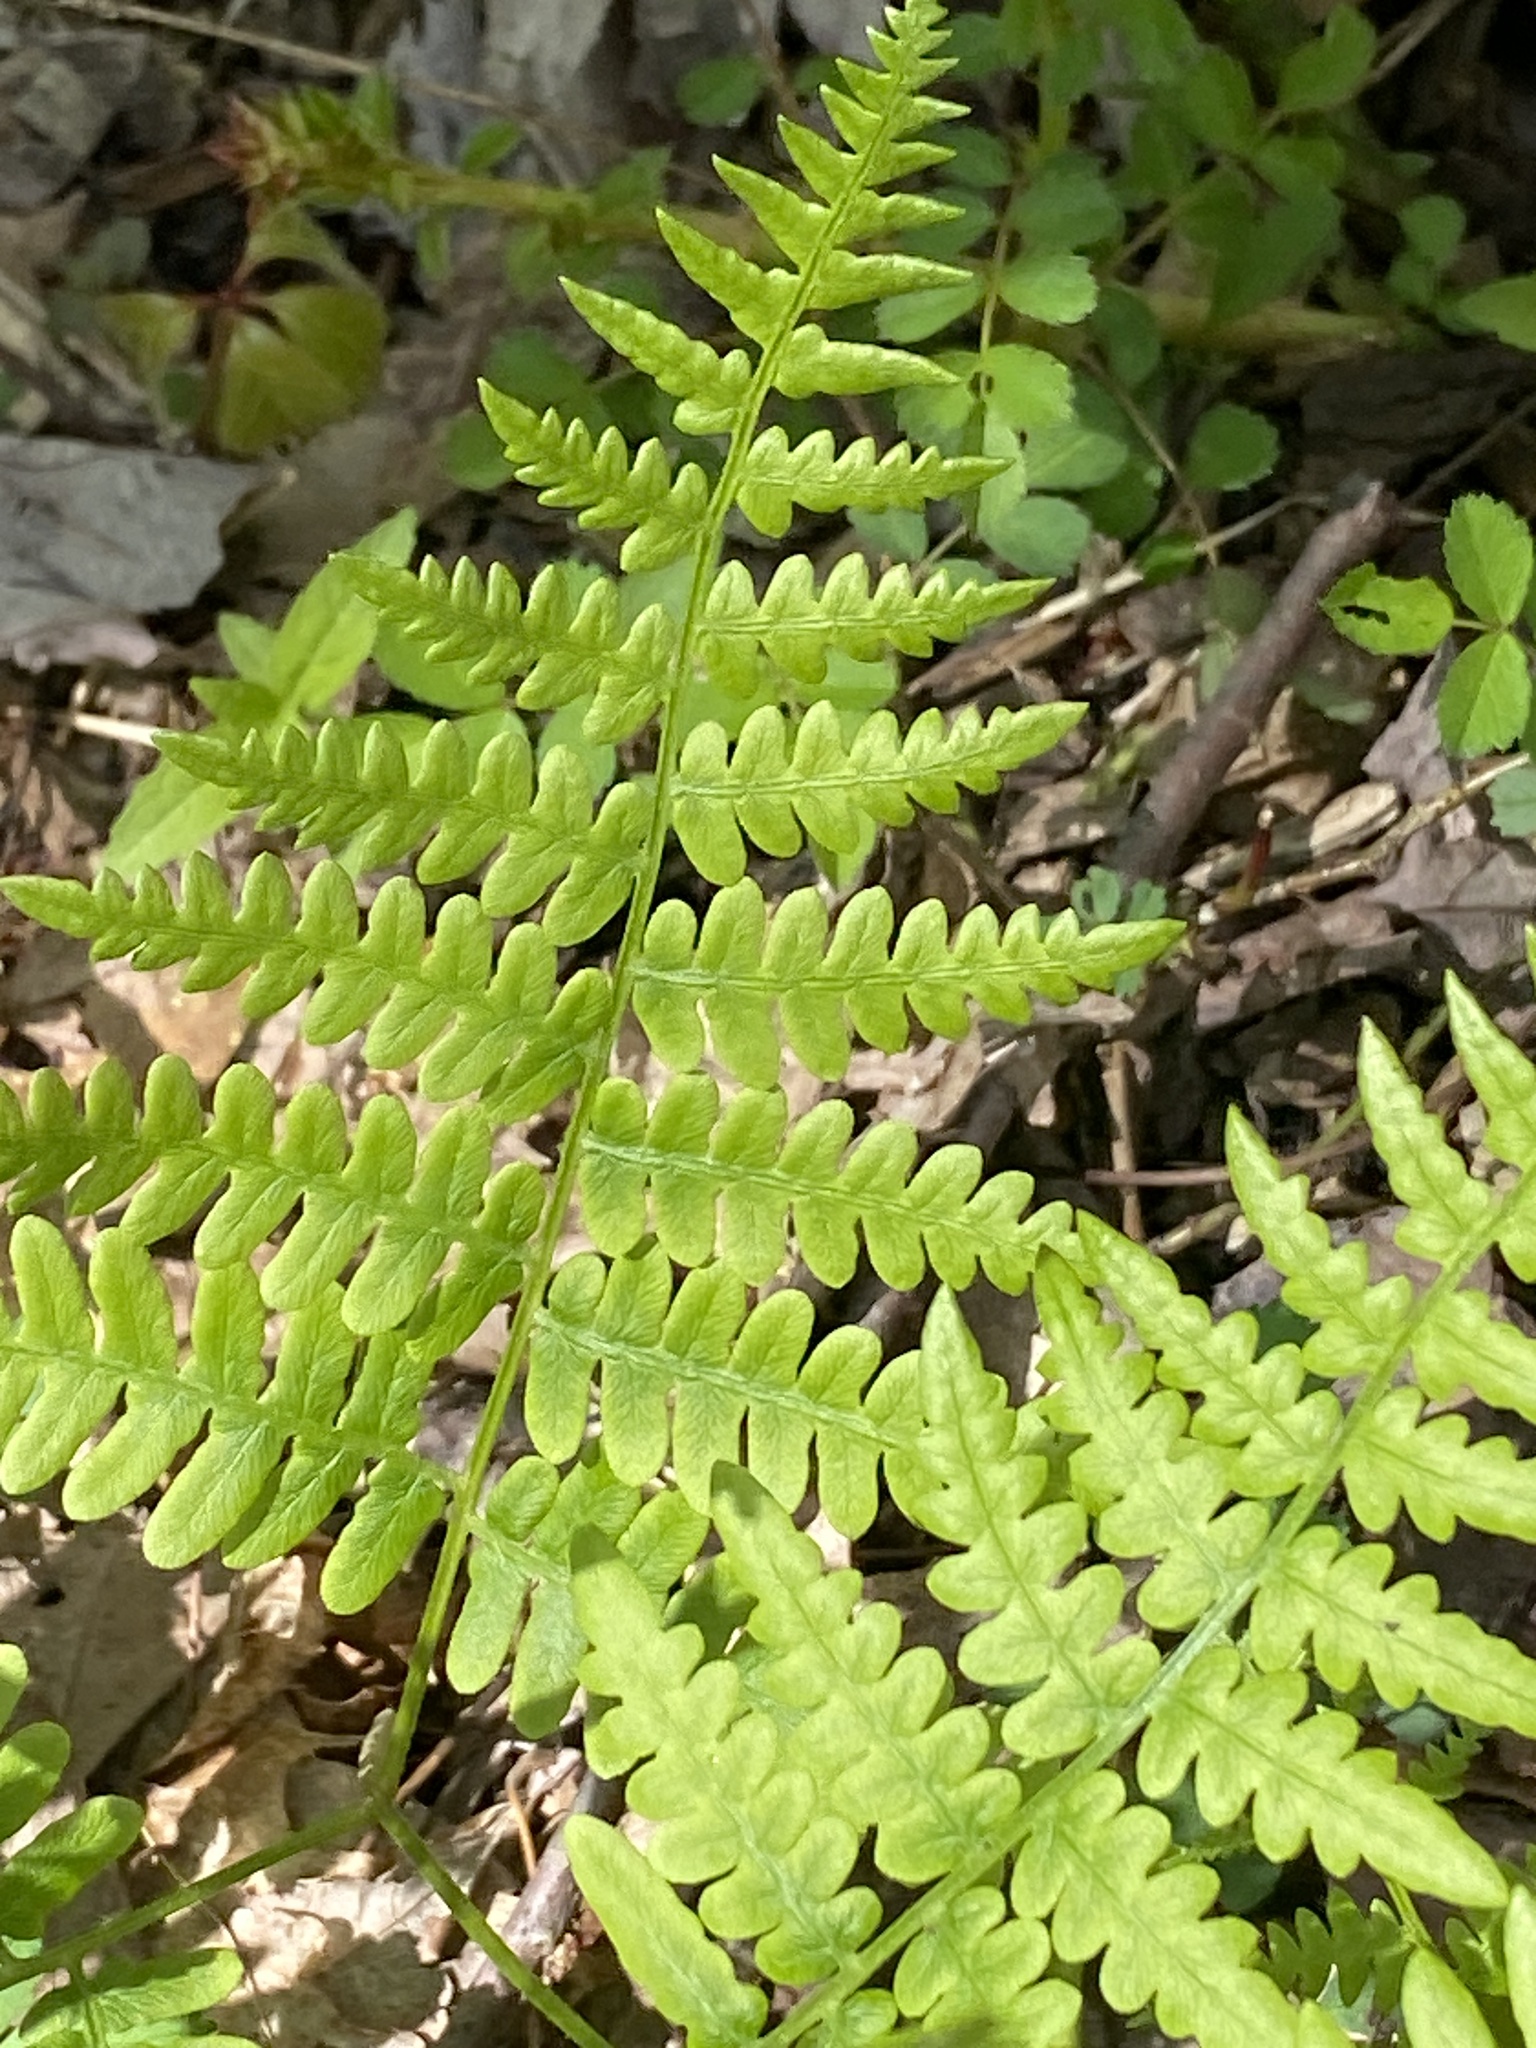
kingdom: Plantae
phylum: Tracheophyta
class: Polypodiopsida
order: Polypodiales
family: Dennstaedtiaceae
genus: Pteridium
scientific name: Pteridium aquilinum
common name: Bracken
